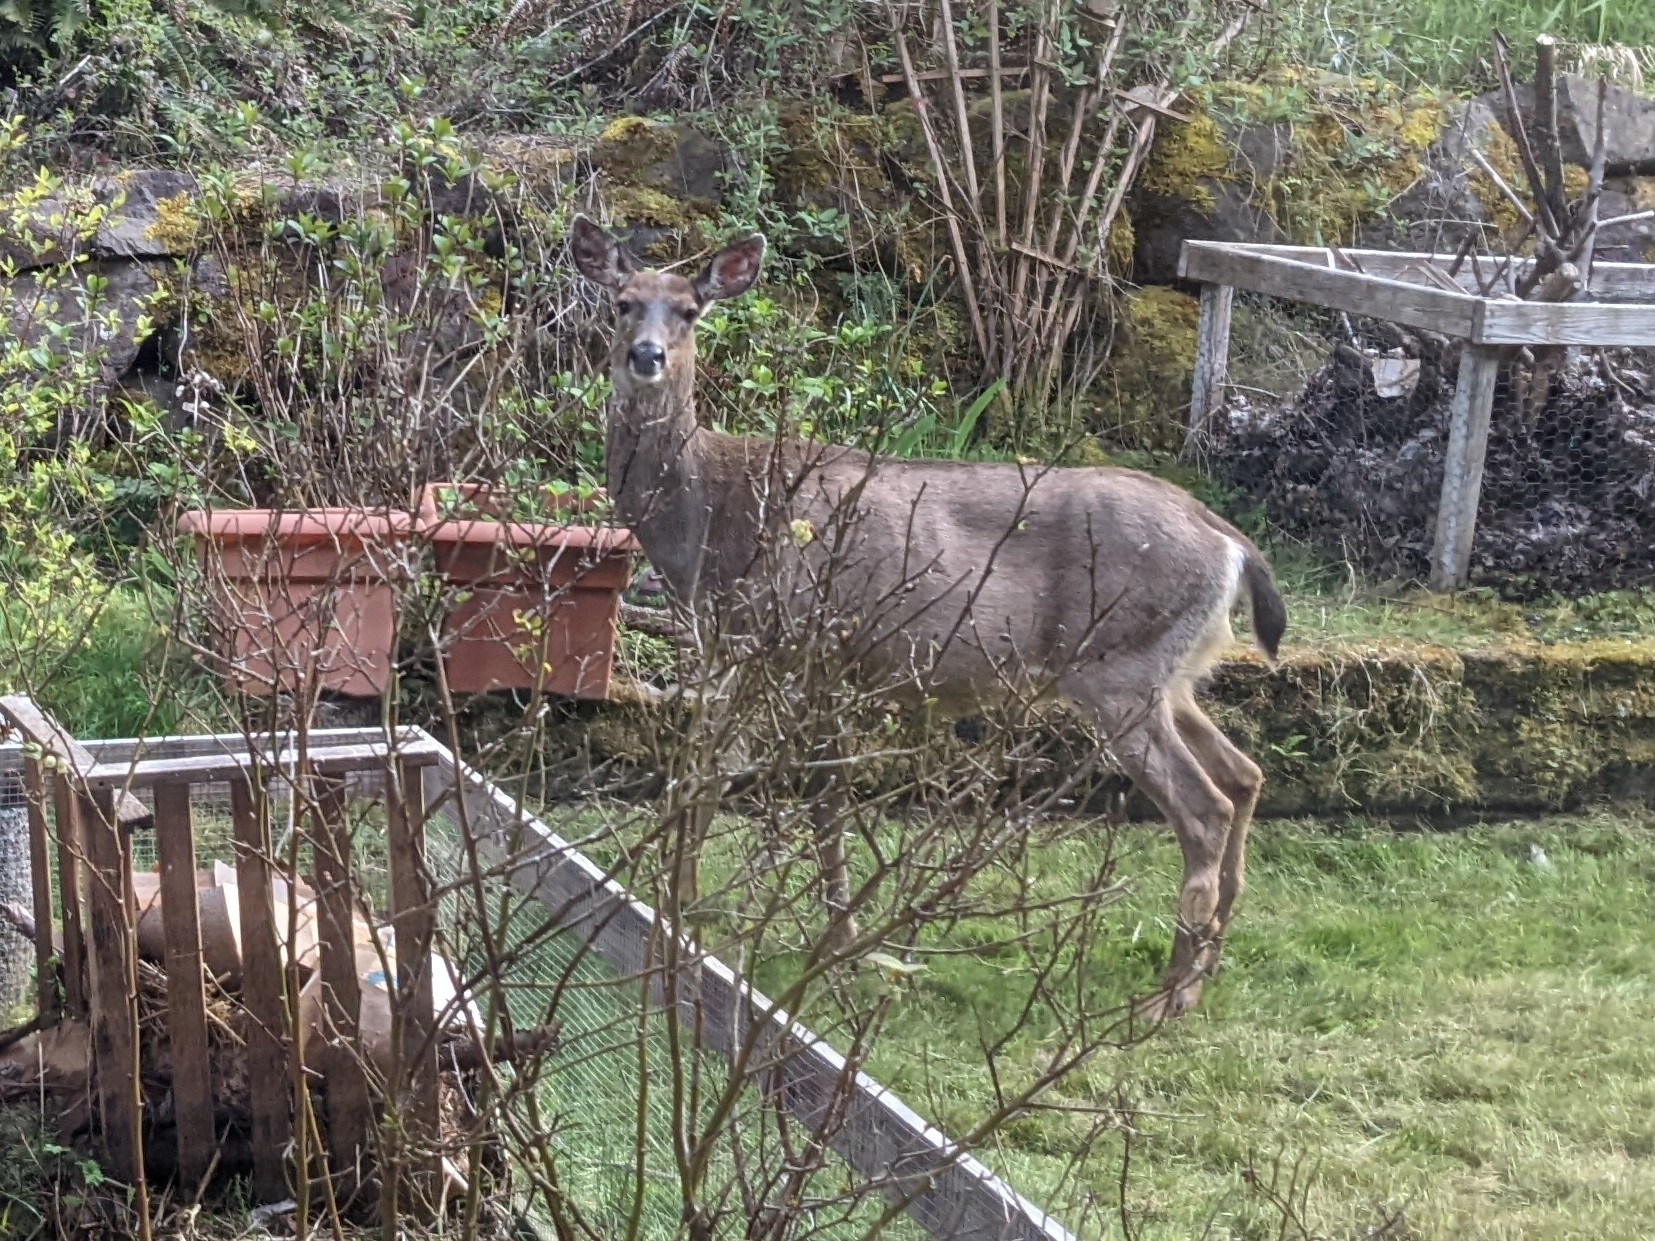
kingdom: Animalia
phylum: Chordata
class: Mammalia
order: Artiodactyla
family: Cervidae
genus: Odocoileus
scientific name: Odocoileus hemionus
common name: Mule deer
